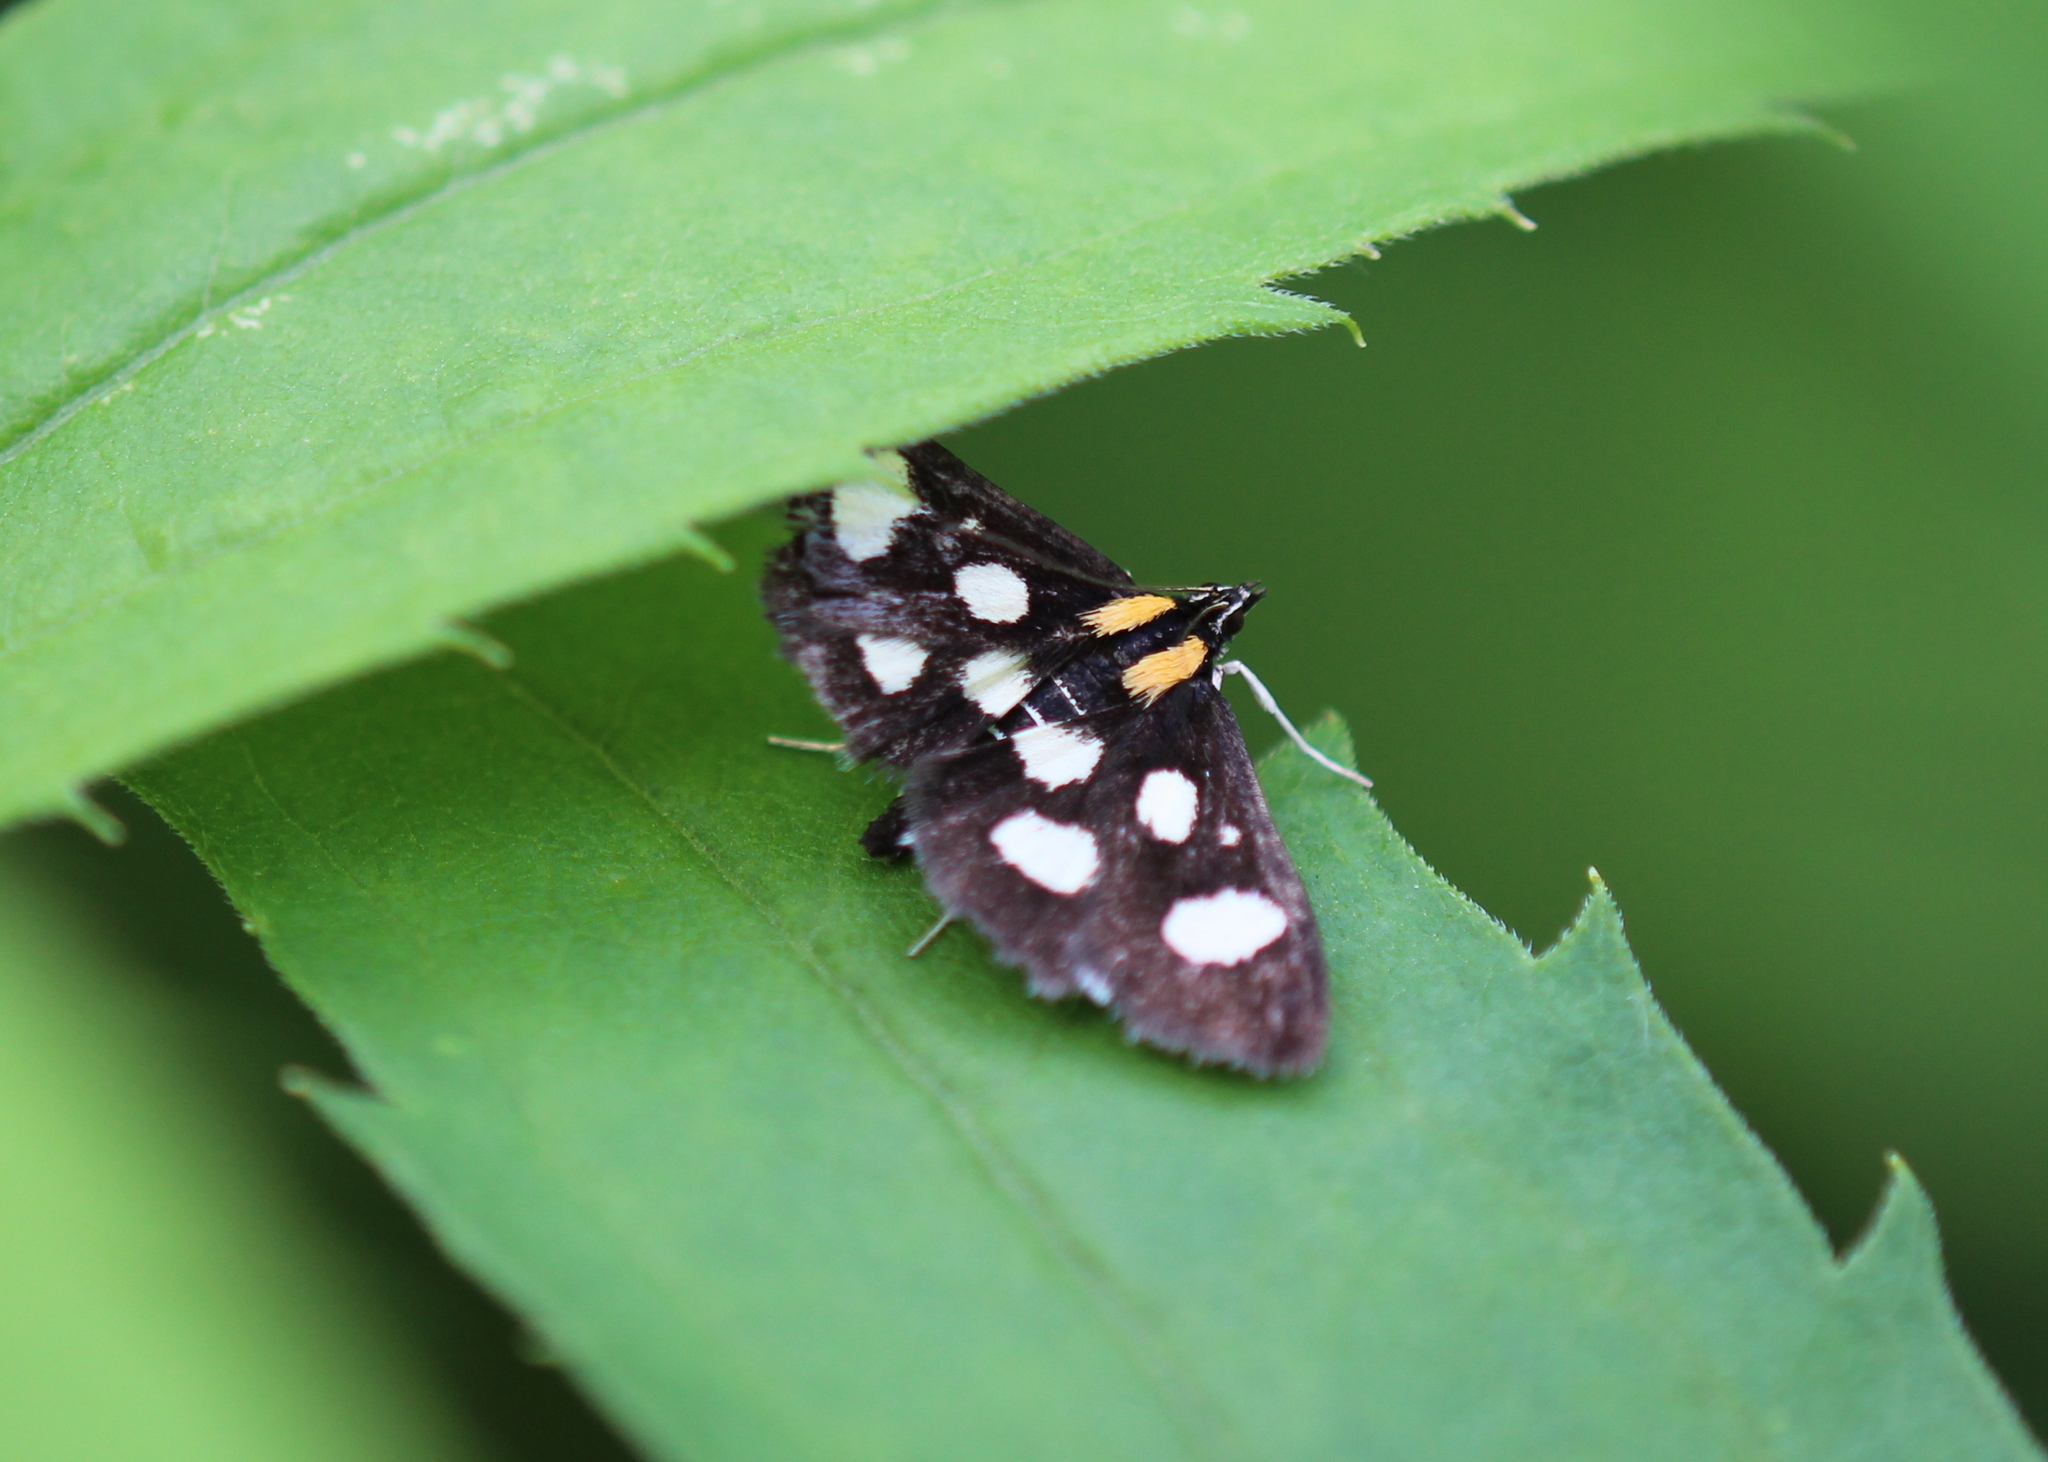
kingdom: Animalia
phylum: Arthropoda
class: Insecta
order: Lepidoptera
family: Crambidae
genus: Anania
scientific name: Anania funebris
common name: White-spotted sable moth
